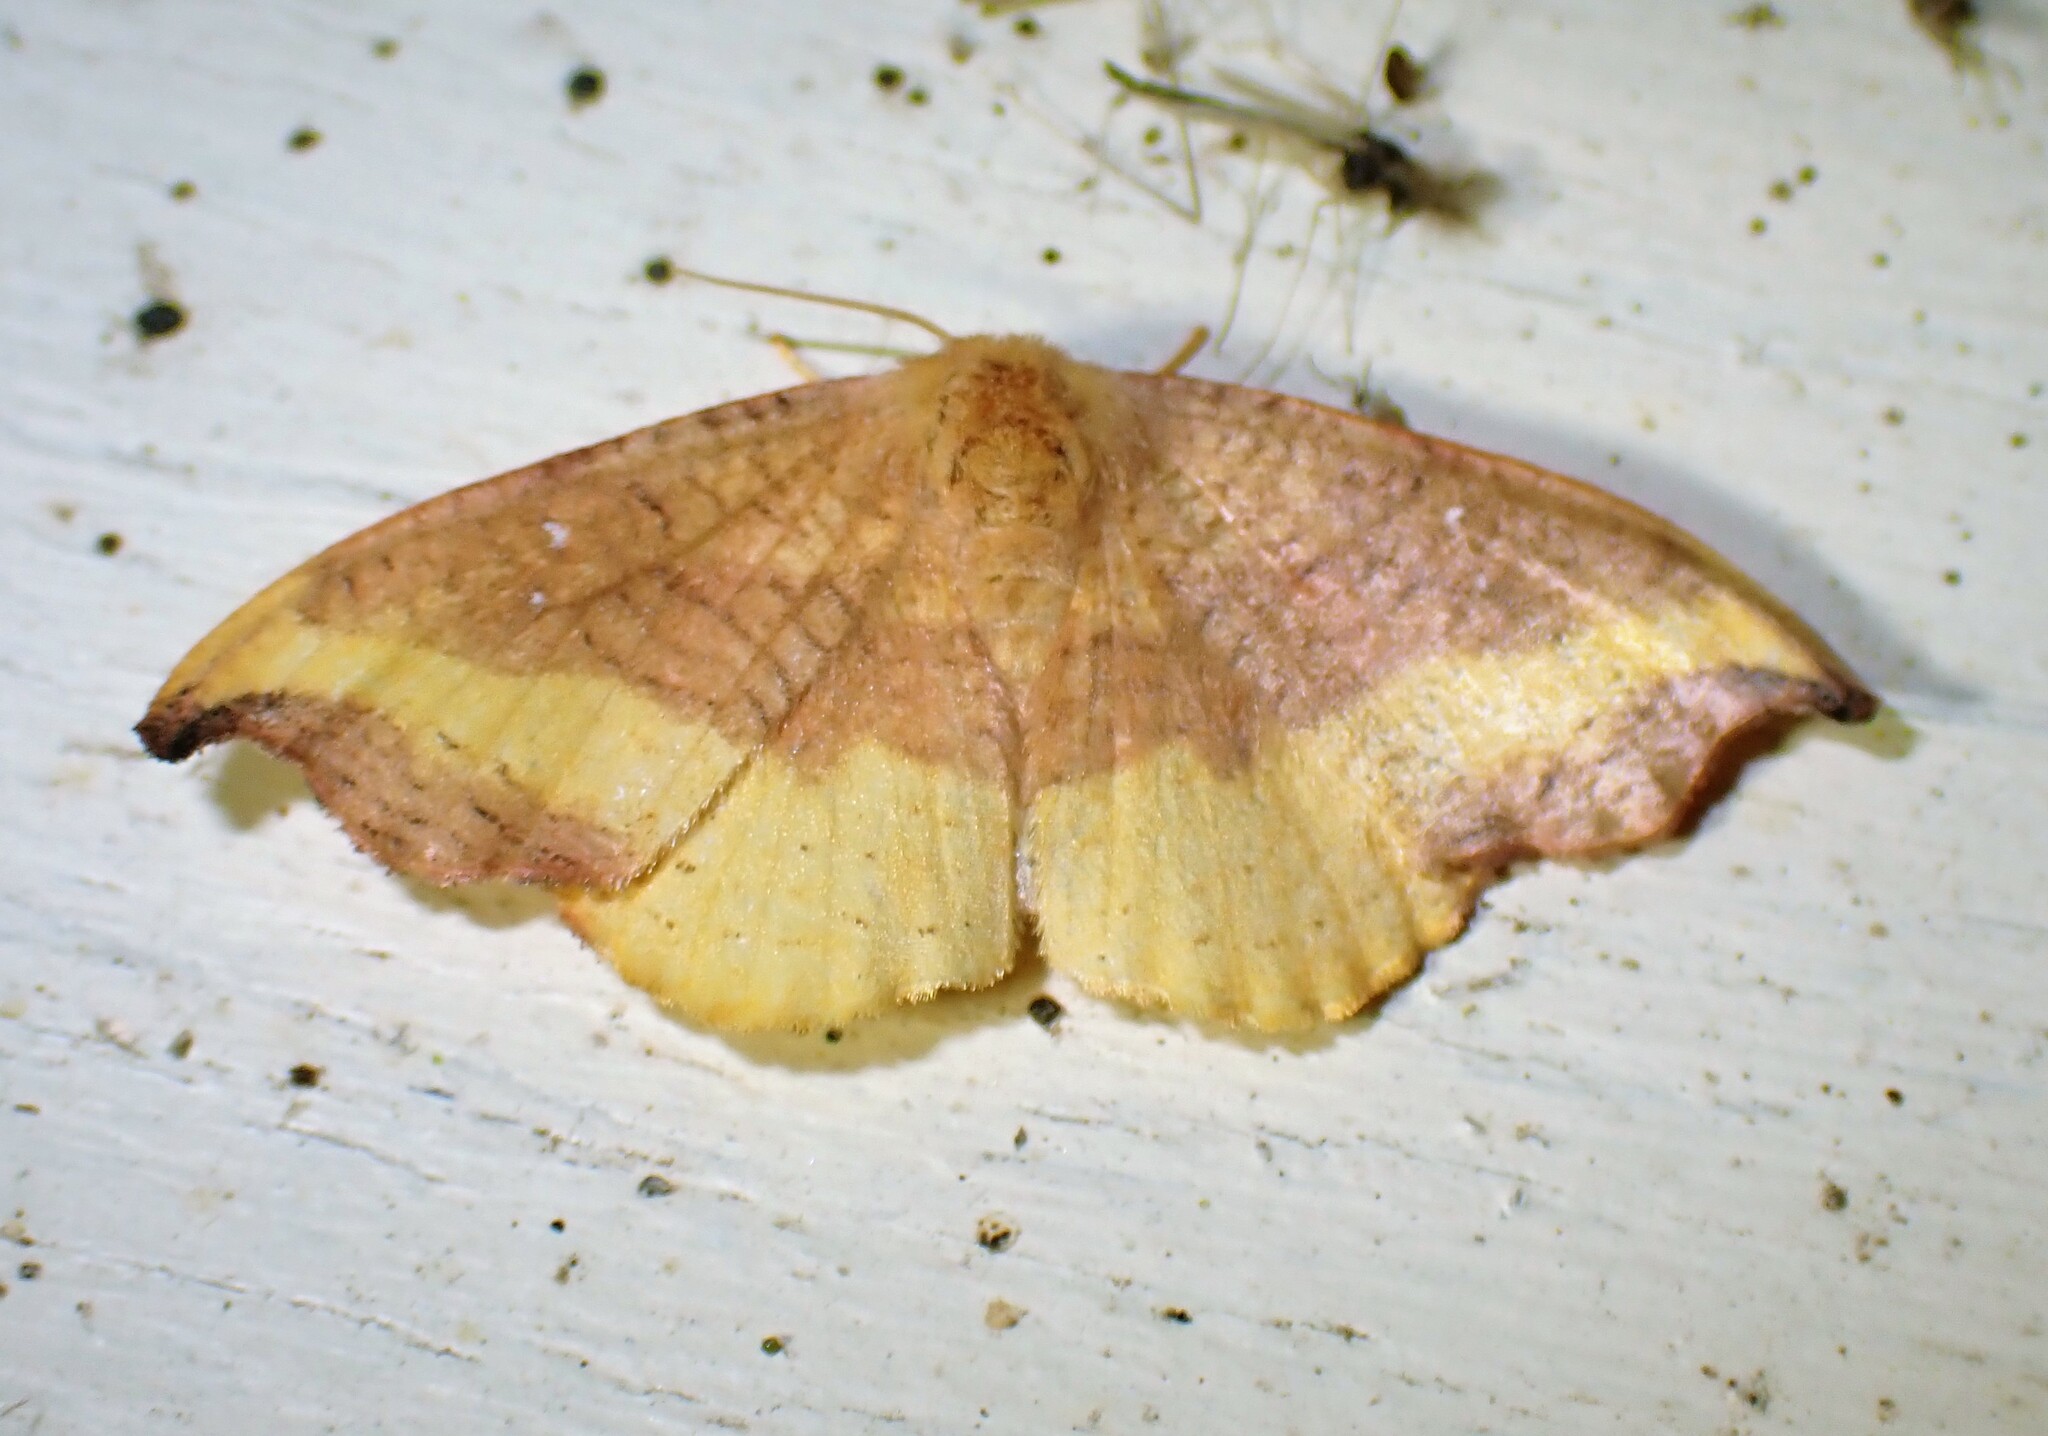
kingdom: Animalia
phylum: Arthropoda
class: Insecta
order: Lepidoptera
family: Drepanidae
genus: Oreta
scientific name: Oreta rosea
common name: Rose hooktip
